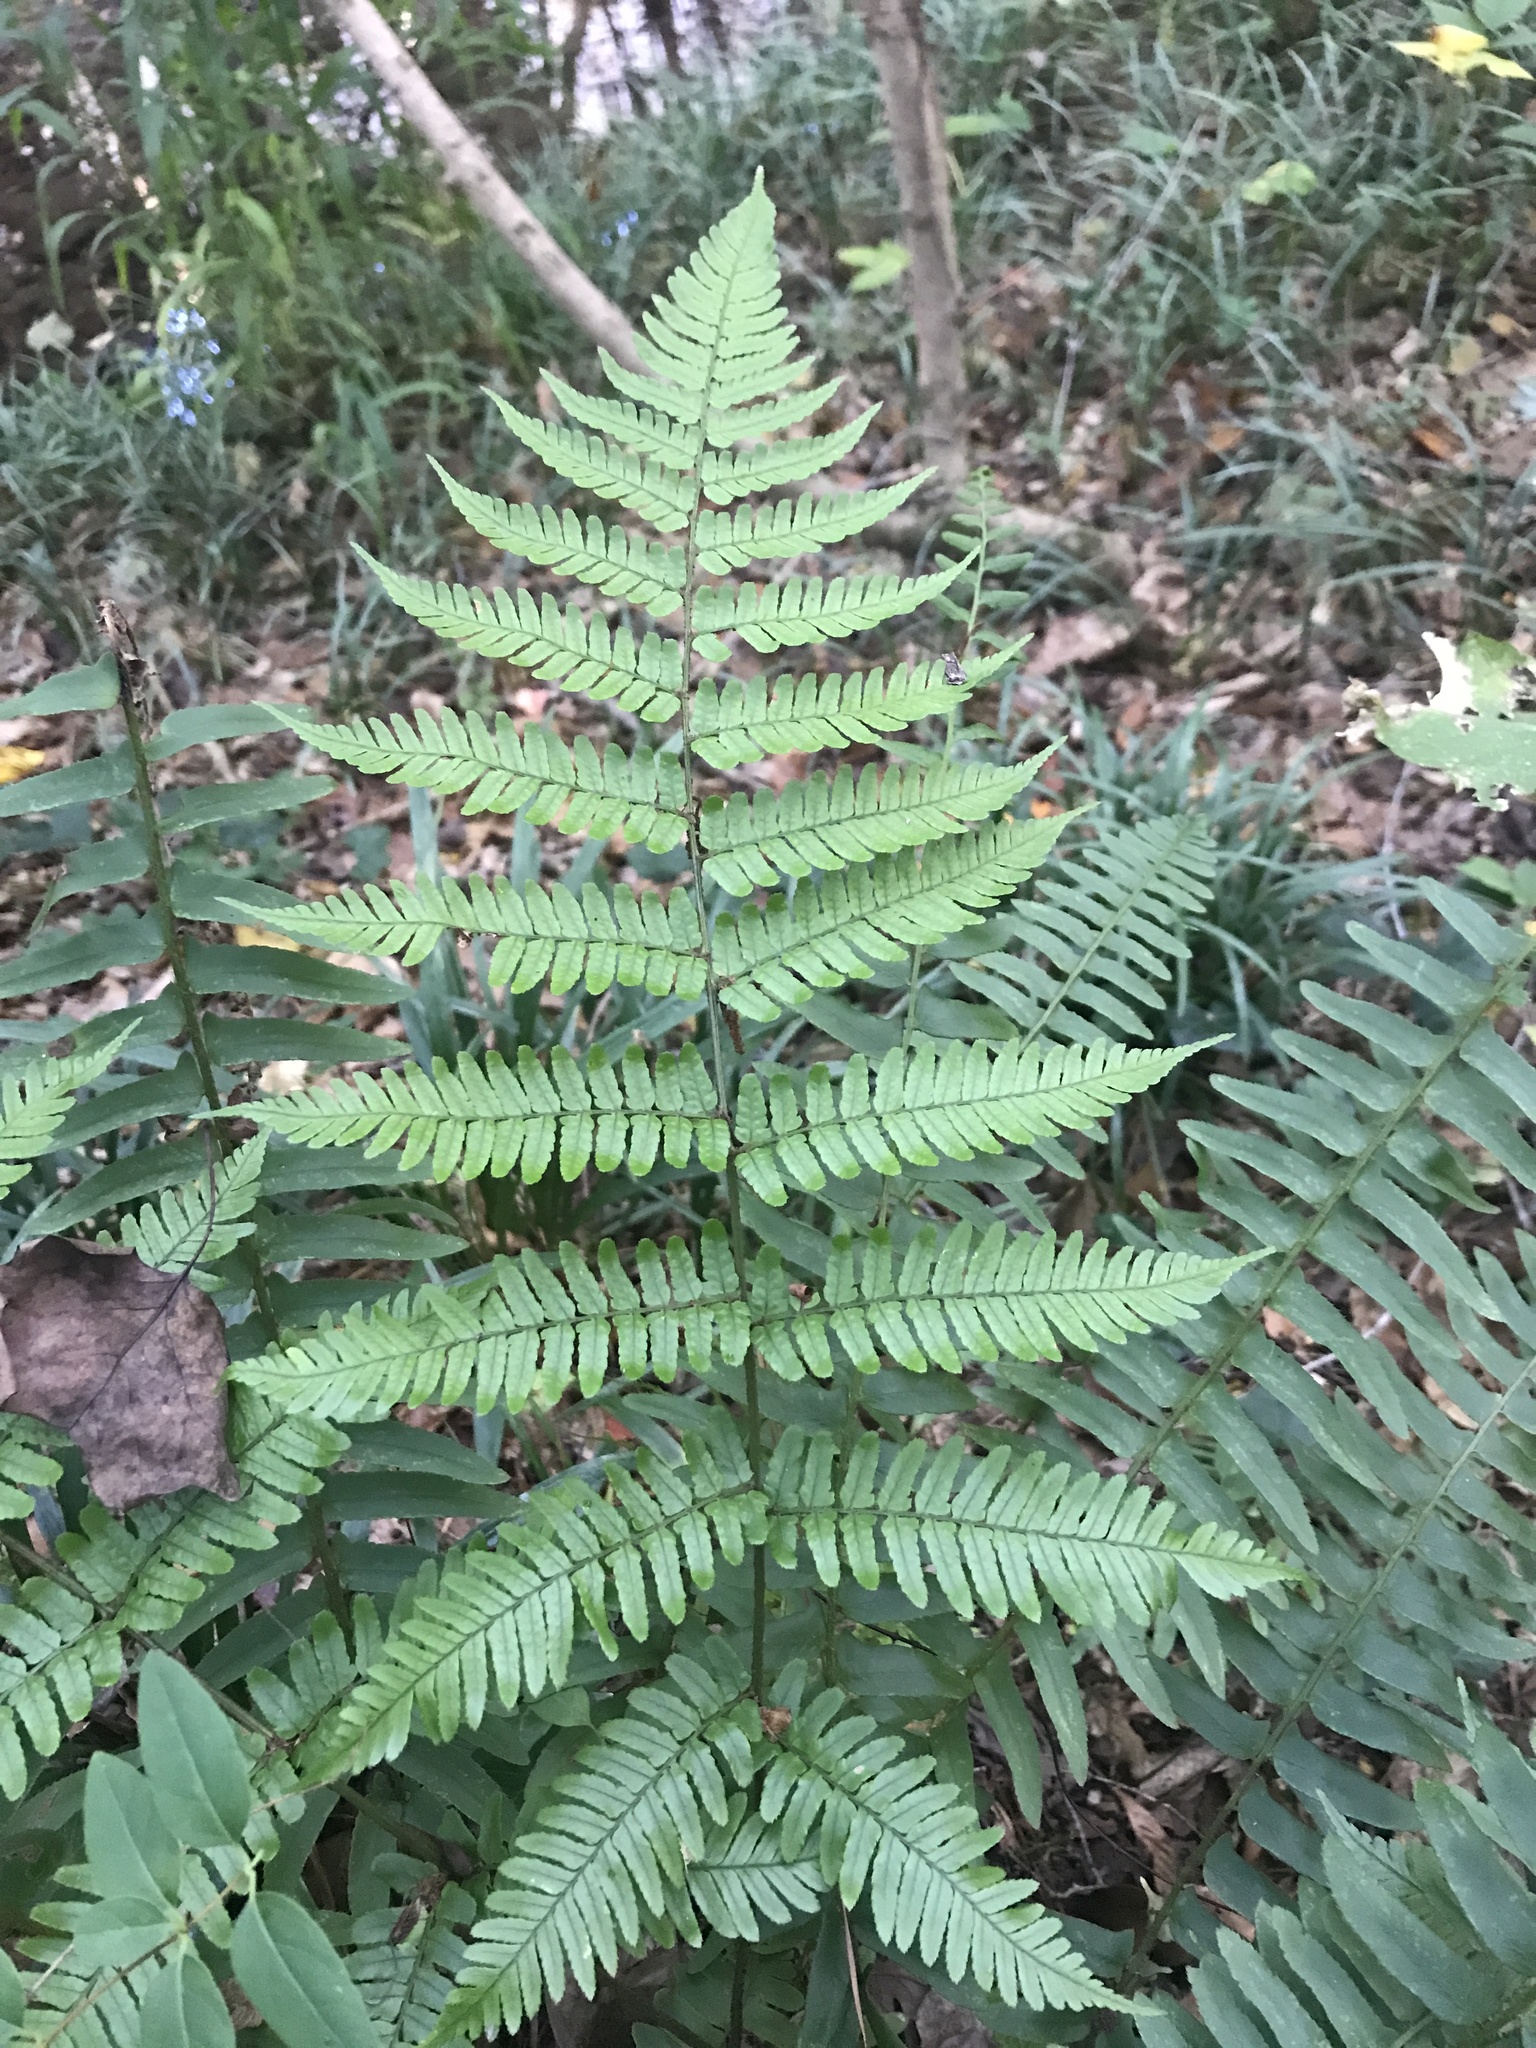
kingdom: Plantae
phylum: Tracheophyta
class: Polypodiopsida
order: Polypodiales
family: Dryopteridaceae
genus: Dryopteris
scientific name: Dryopteris erythrosora
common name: Autumn fern
